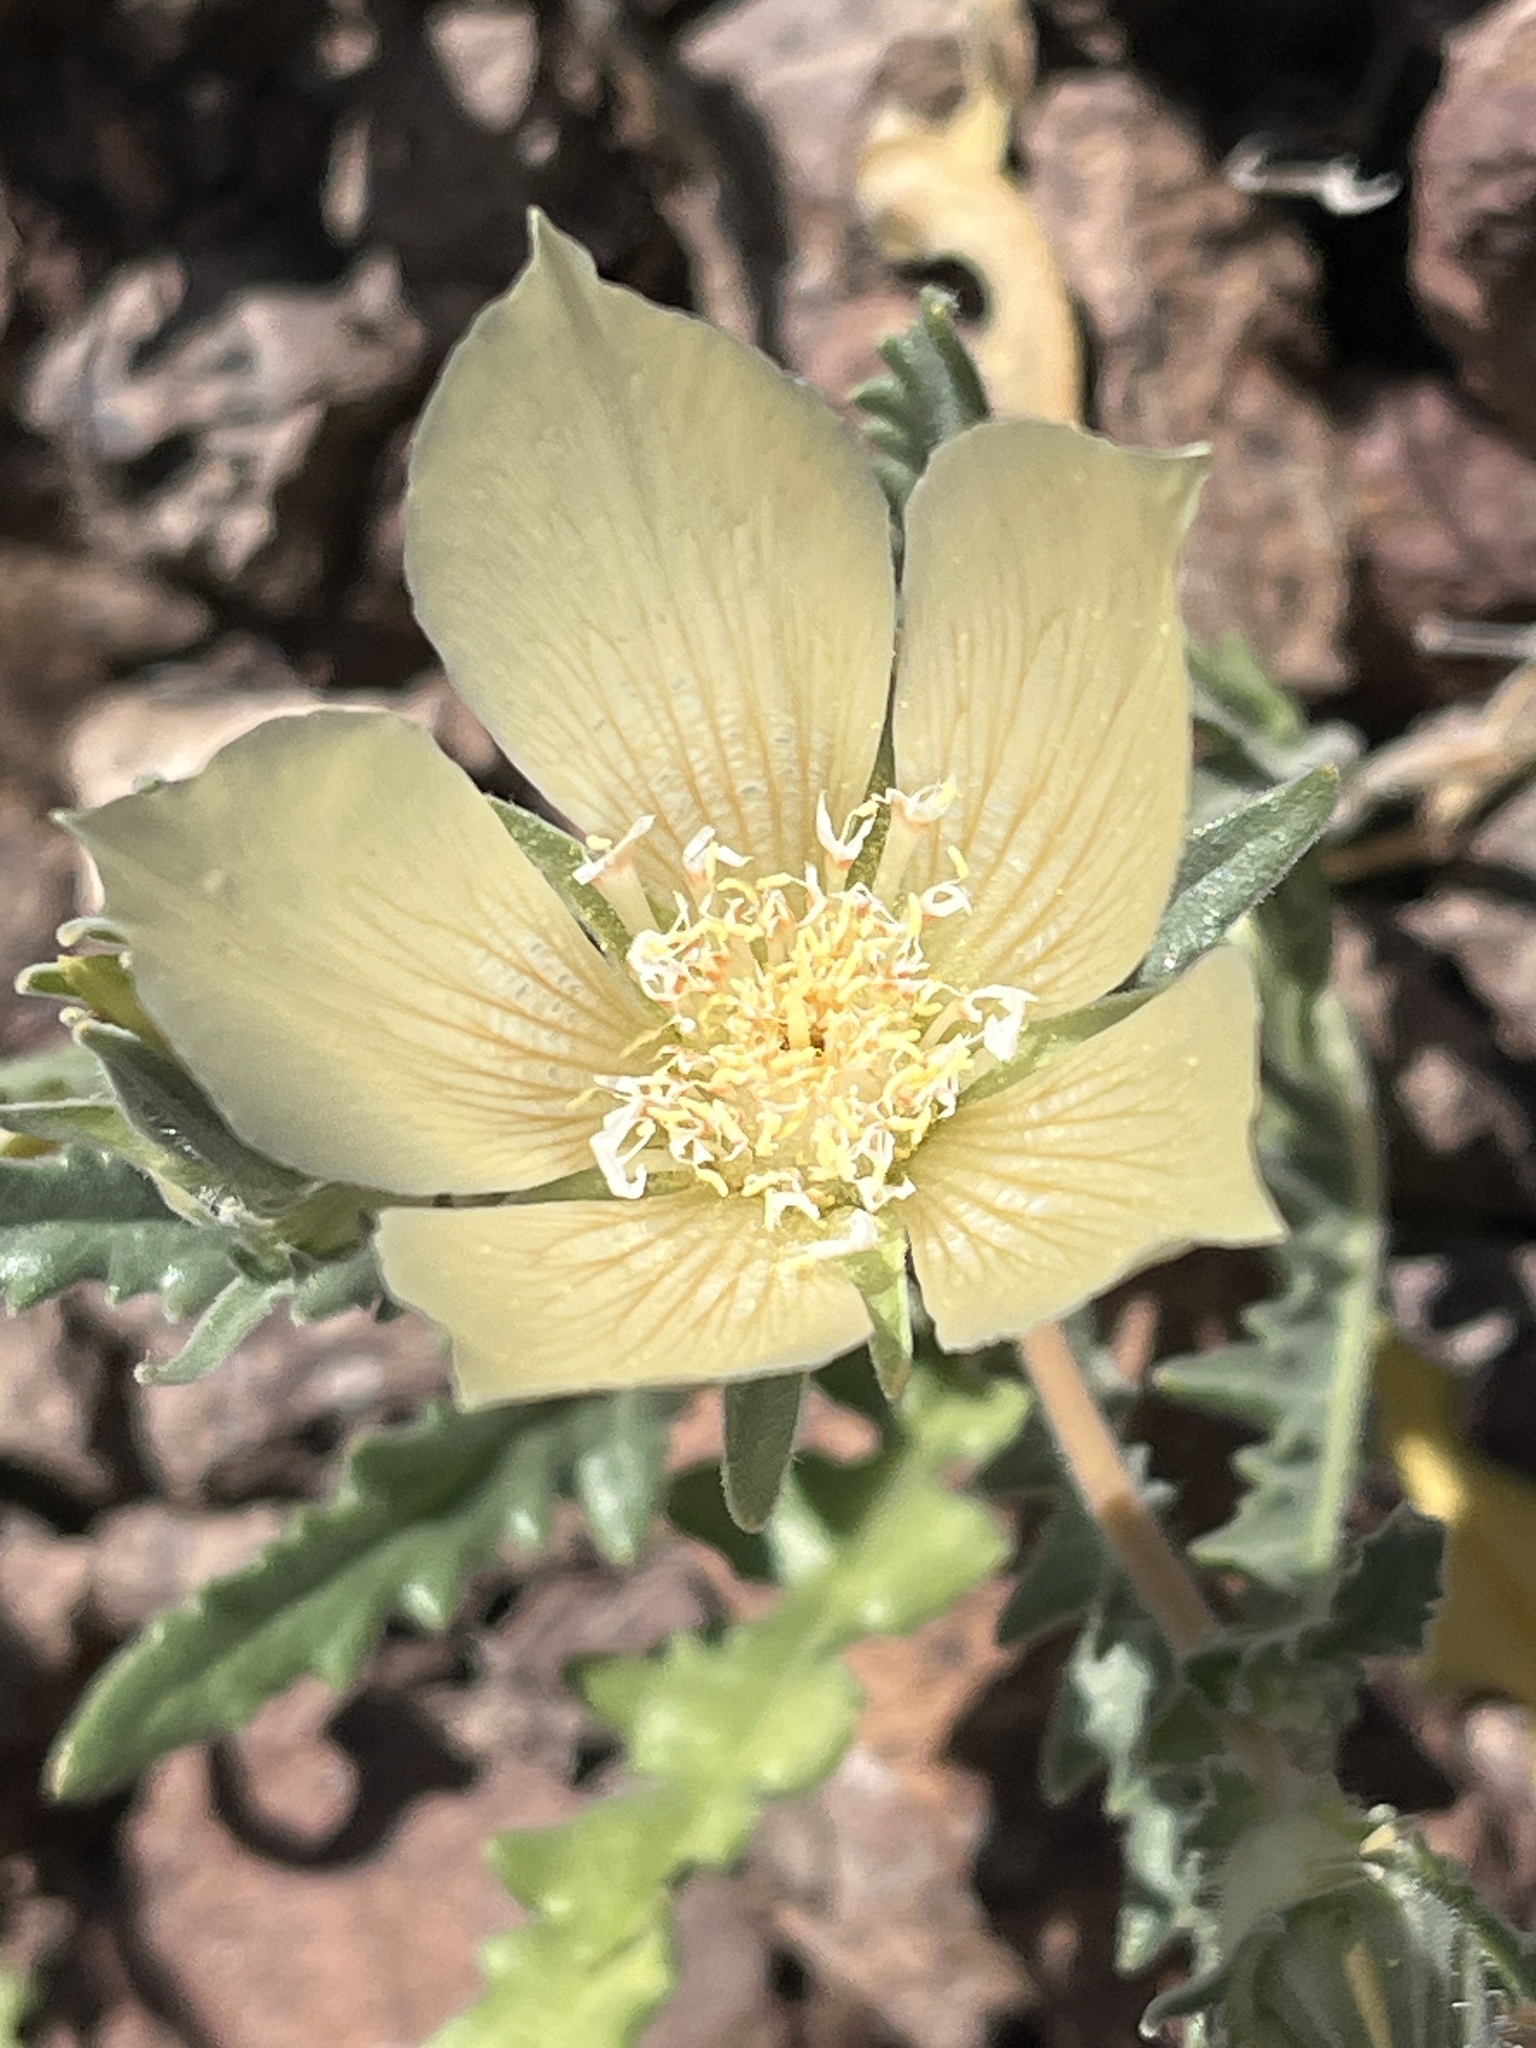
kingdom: Plantae
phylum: Tracheophyta
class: Magnoliopsida
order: Cornales
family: Loasaceae
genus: Mentzelia
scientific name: Mentzelia involucrata
